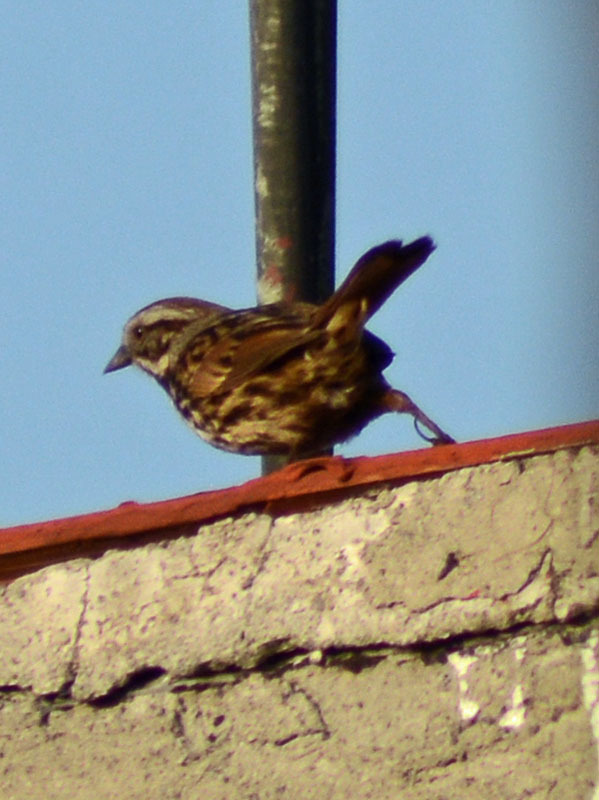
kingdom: Animalia
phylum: Chordata
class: Aves
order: Passeriformes
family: Passerellidae
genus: Melospiza
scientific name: Melospiza melodia
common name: Song sparrow
